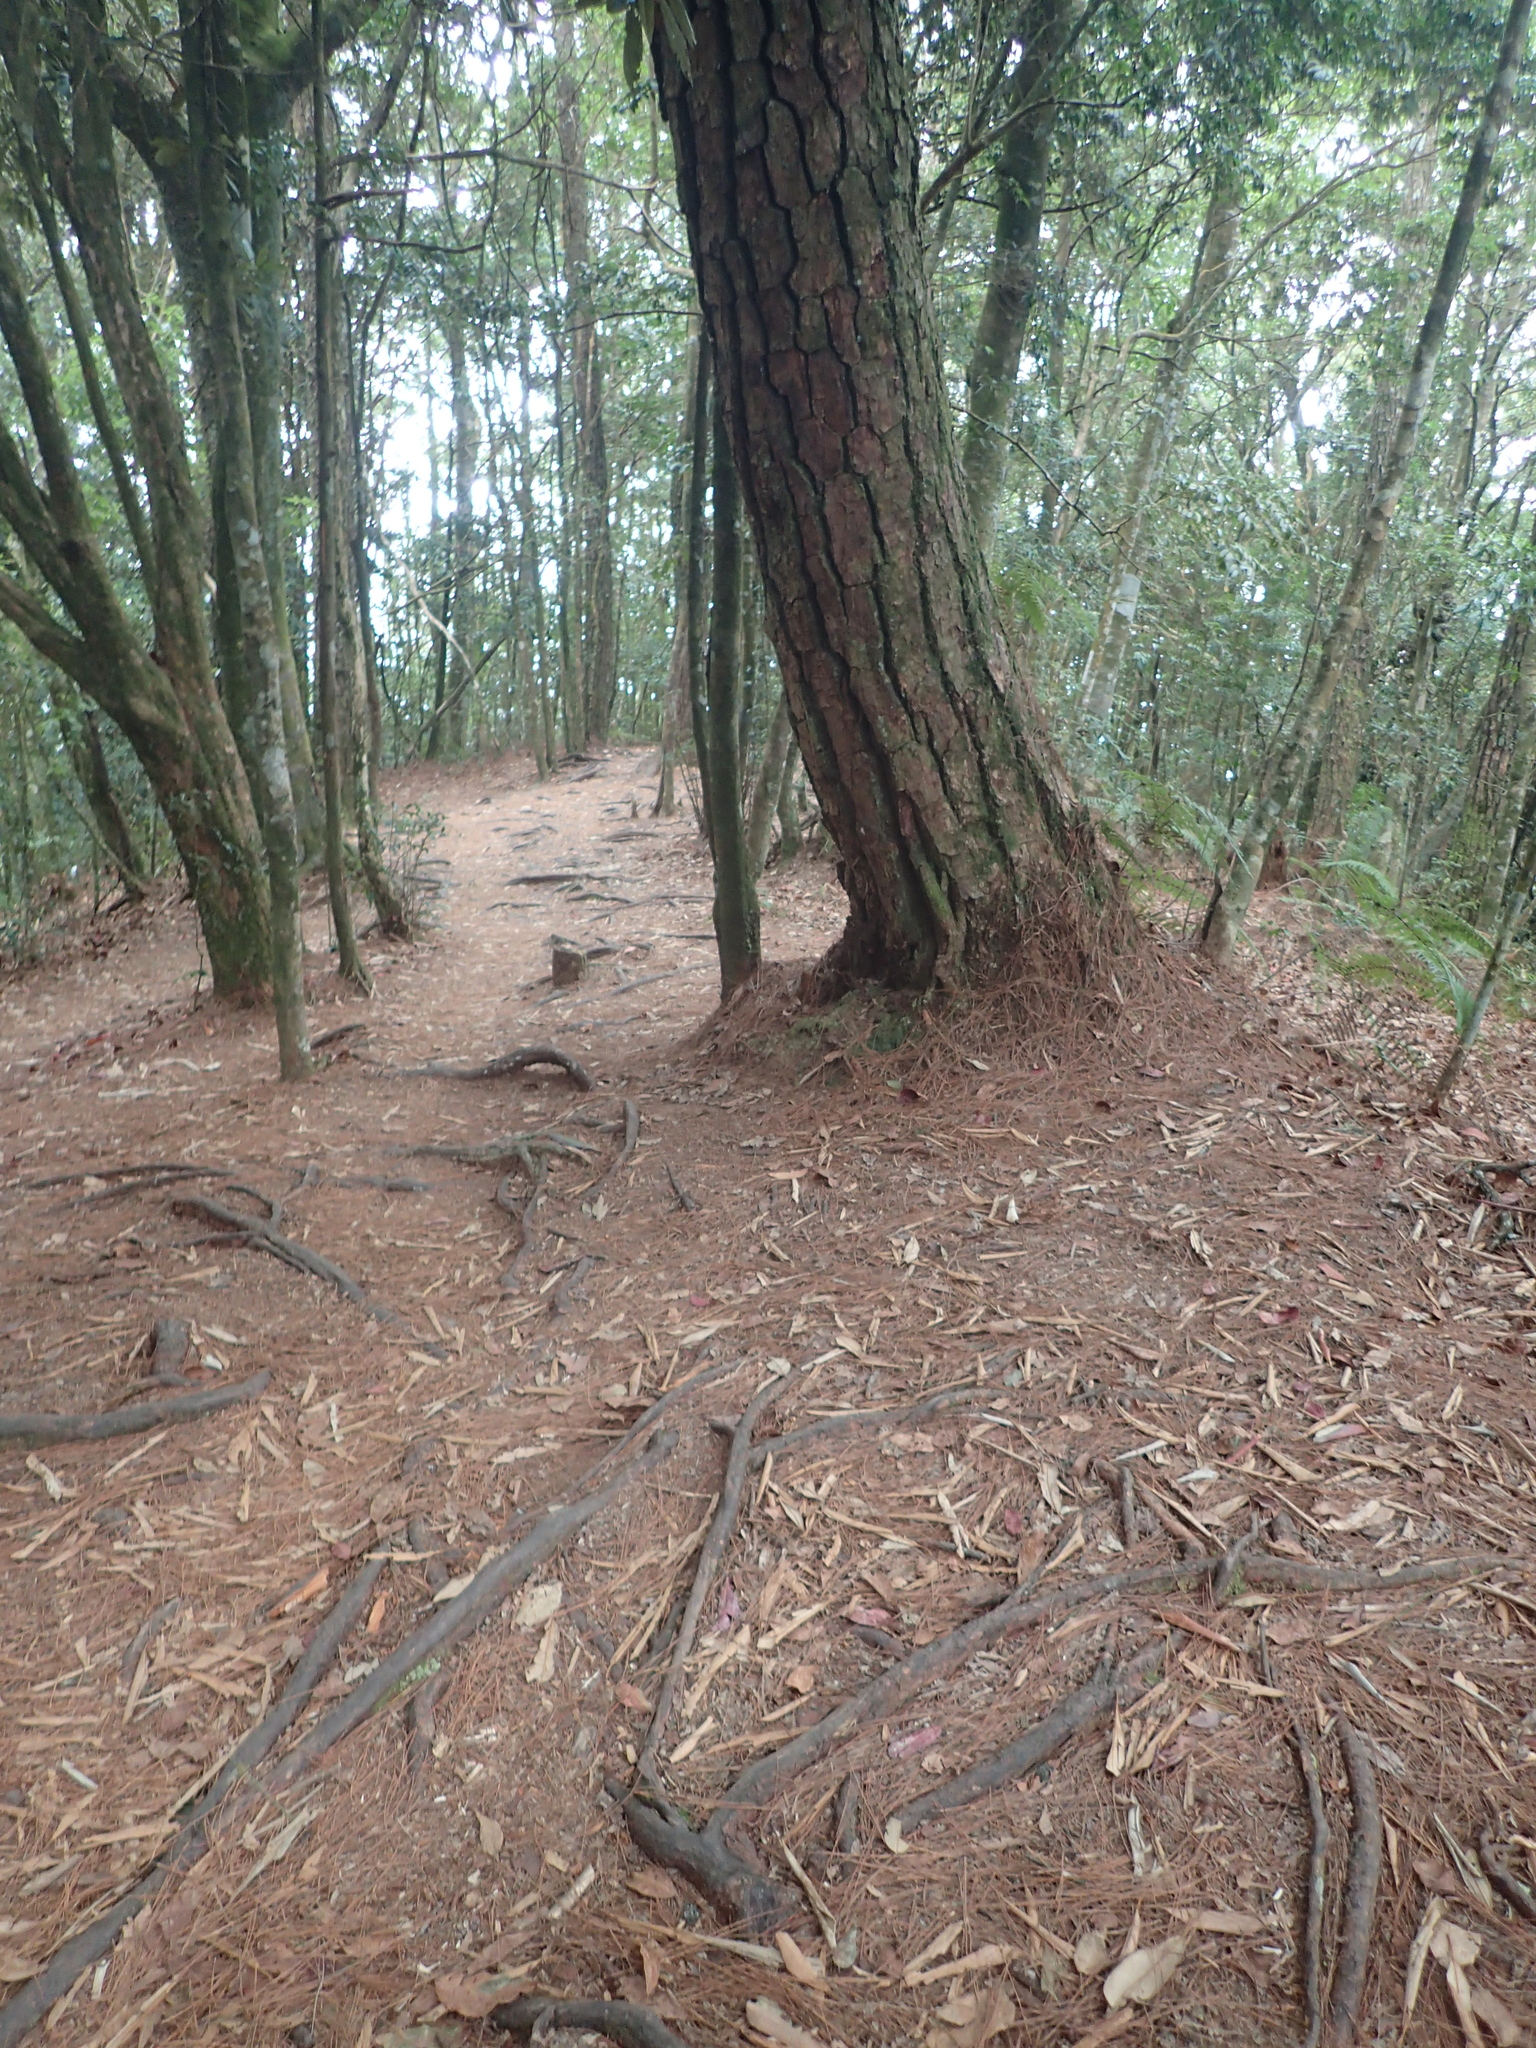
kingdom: Plantae
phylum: Tracheophyta
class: Pinopsida
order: Pinales
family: Pinaceae
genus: Pinus
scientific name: Pinus taiwanensis
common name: Formosa pine
